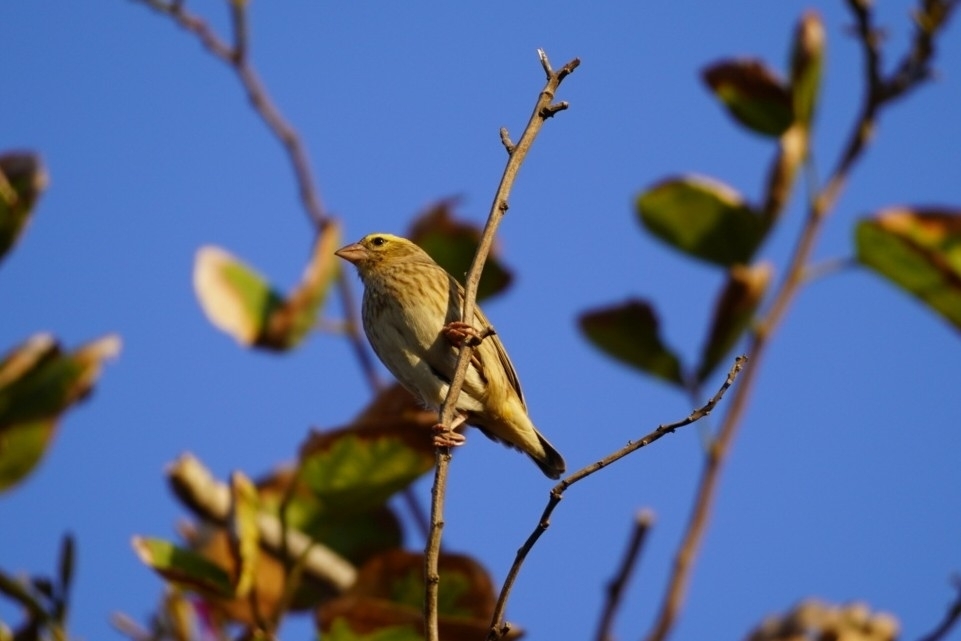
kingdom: Animalia
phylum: Chordata
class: Aves
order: Passeriformes
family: Ploceidae
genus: Euplectes
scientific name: Euplectes orix
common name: Southern red bishop
